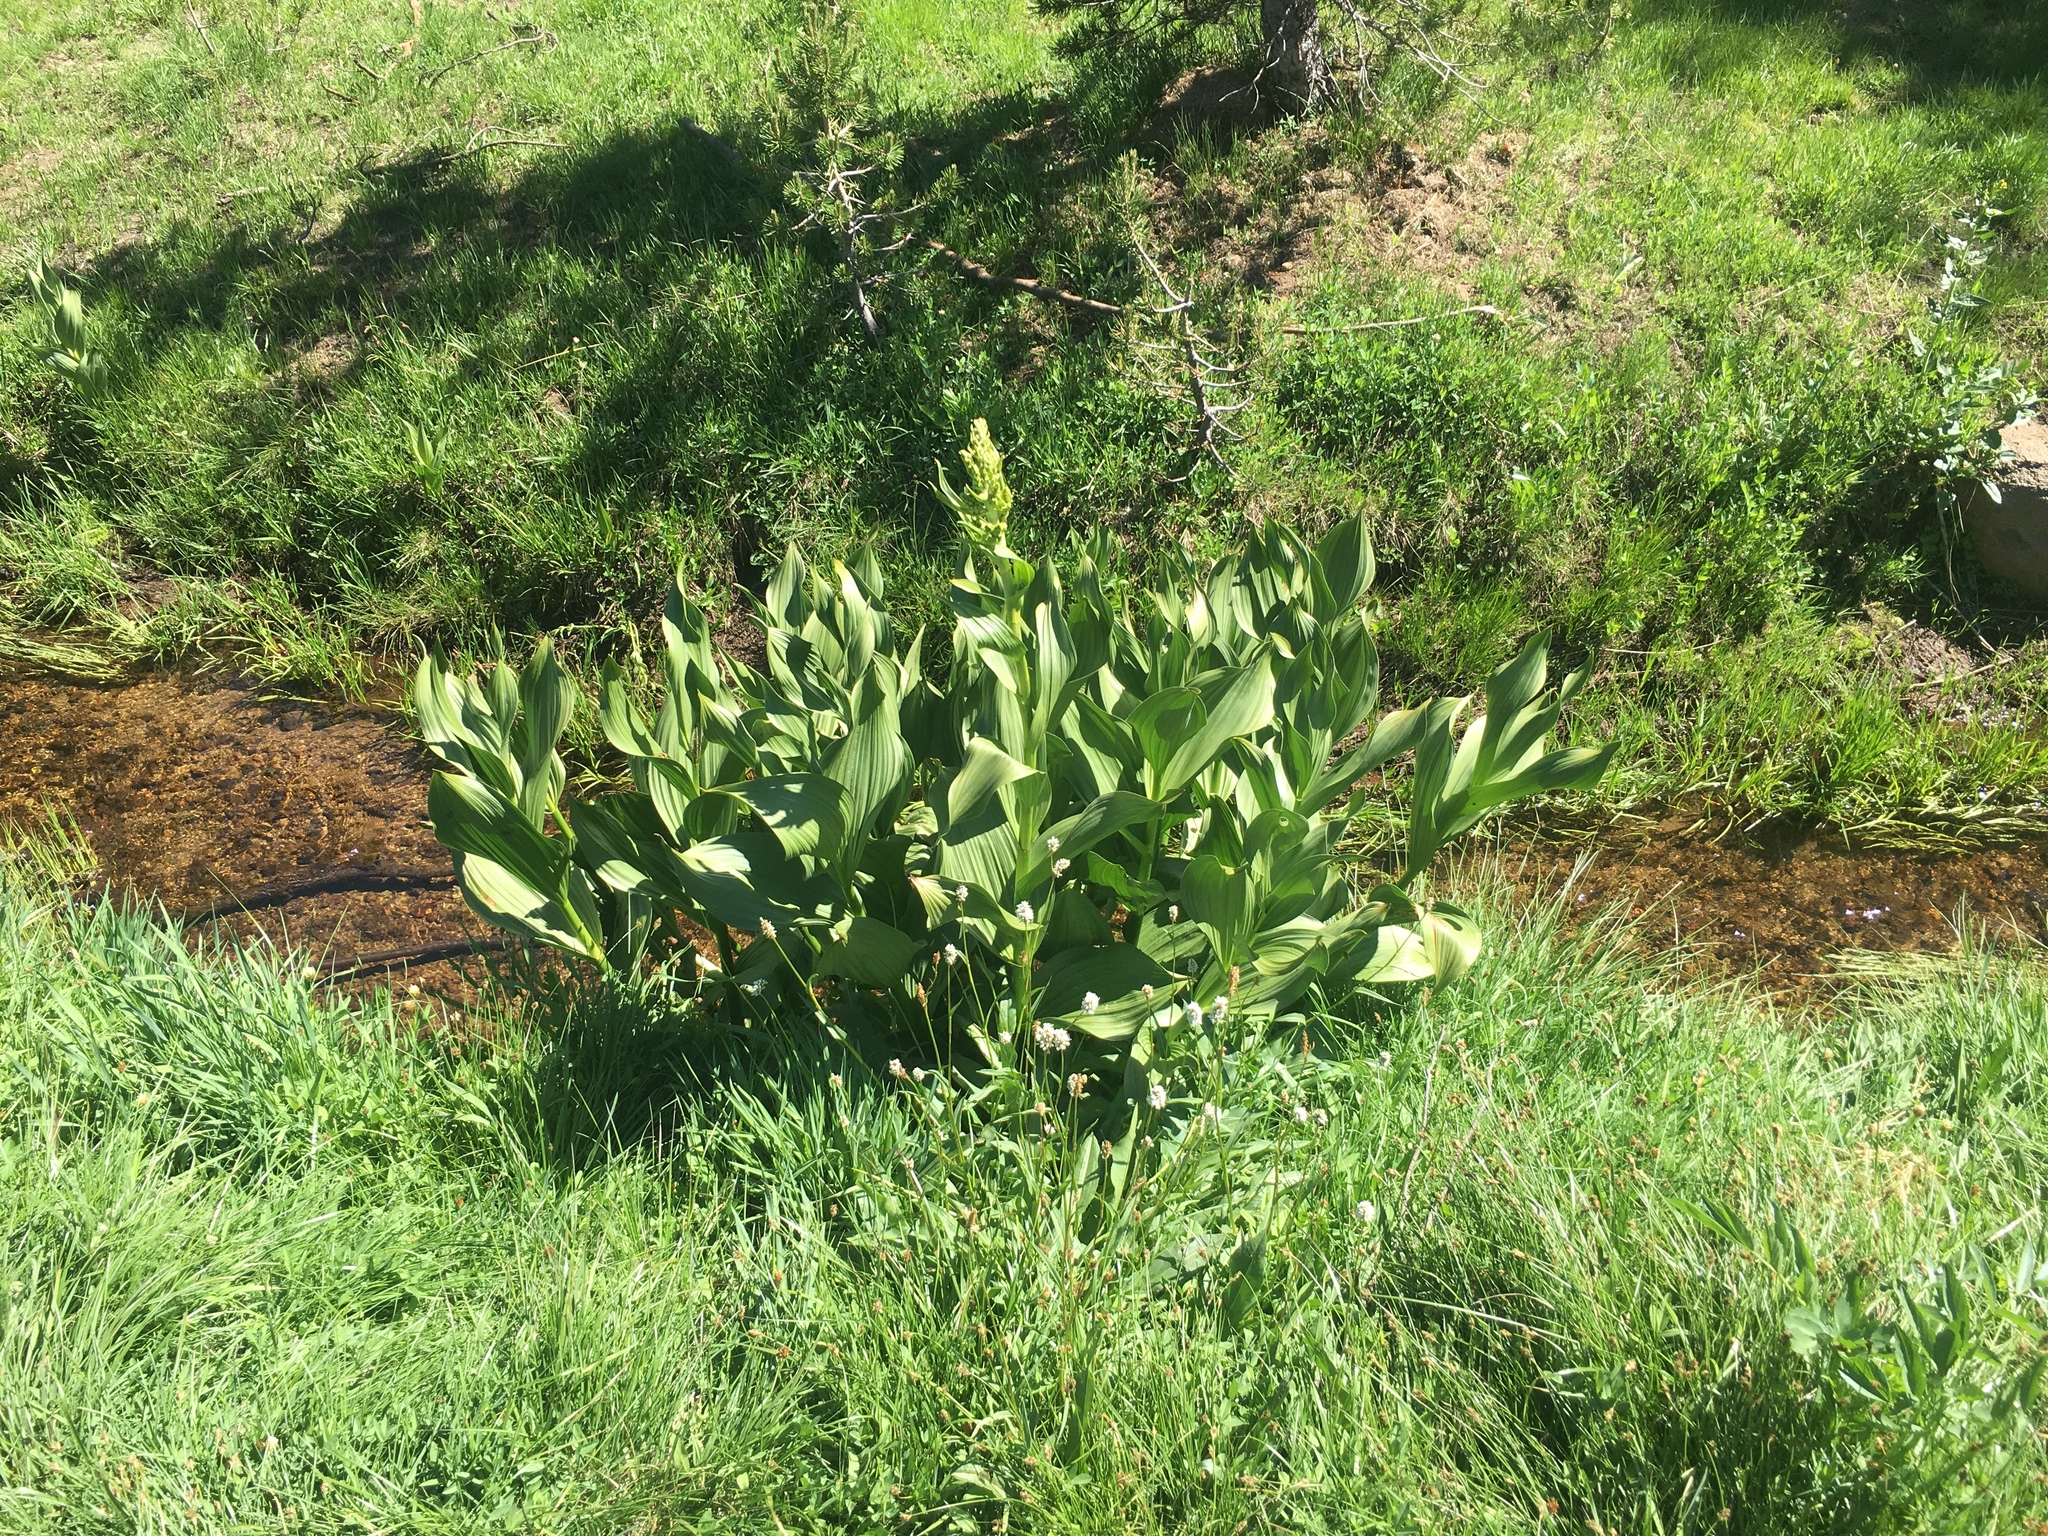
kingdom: Plantae
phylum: Tracheophyta
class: Liliopsida
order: Liliales
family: Melanthiaceae
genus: Veratrum
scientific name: Veratrum californicum
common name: California veratrum
